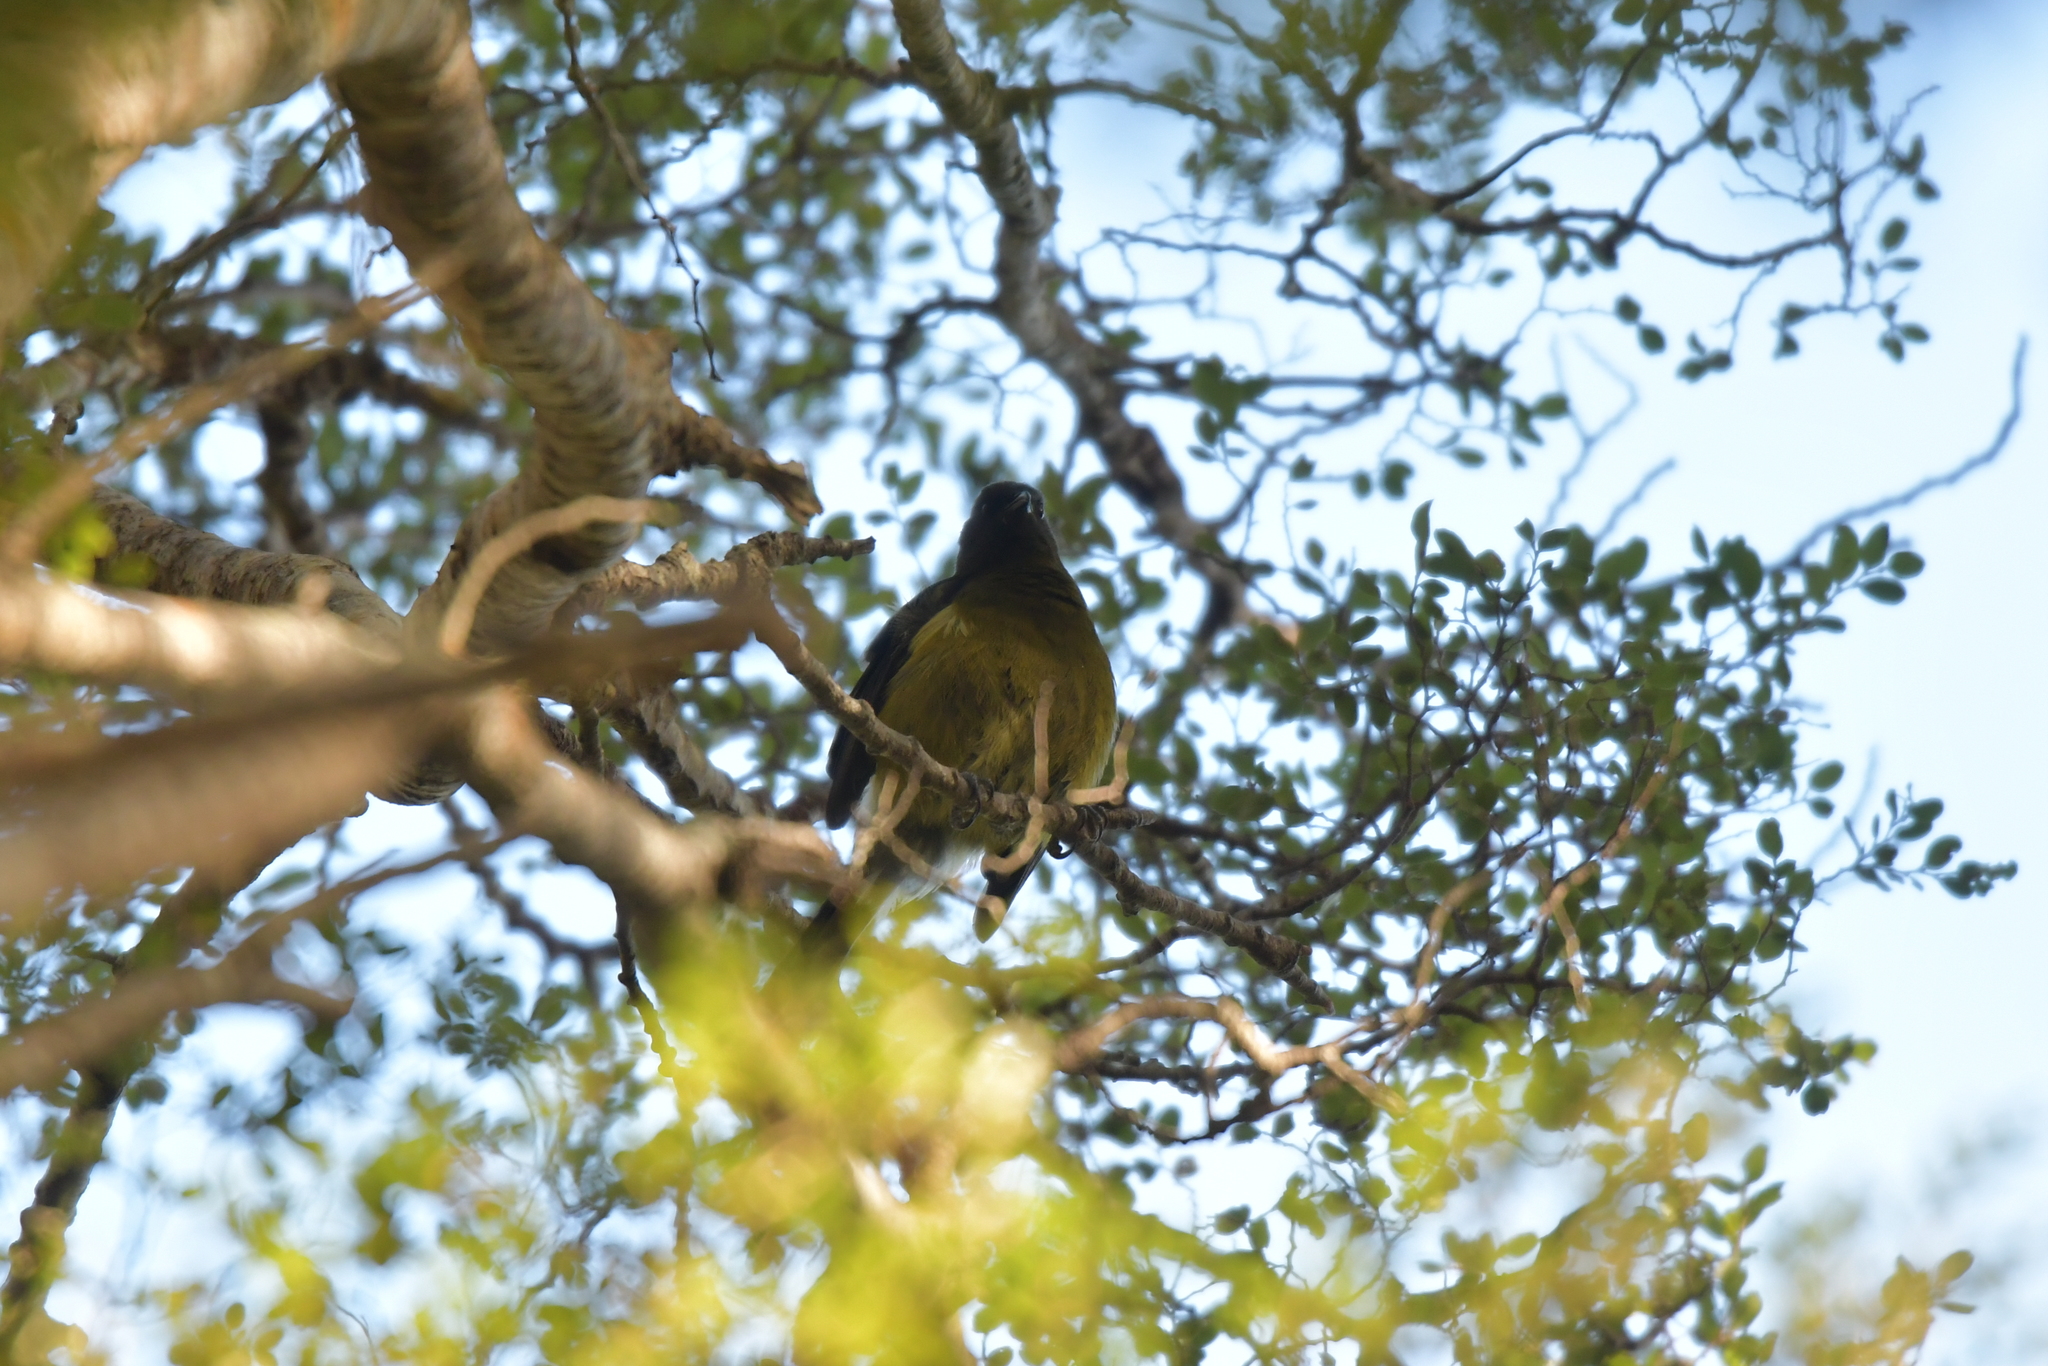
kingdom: Animalia
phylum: Chordata
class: Aves
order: Passeriformes
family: Meliphagidae
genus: Anthornis
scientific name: Anthornis melanura
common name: New zealand bellbird
